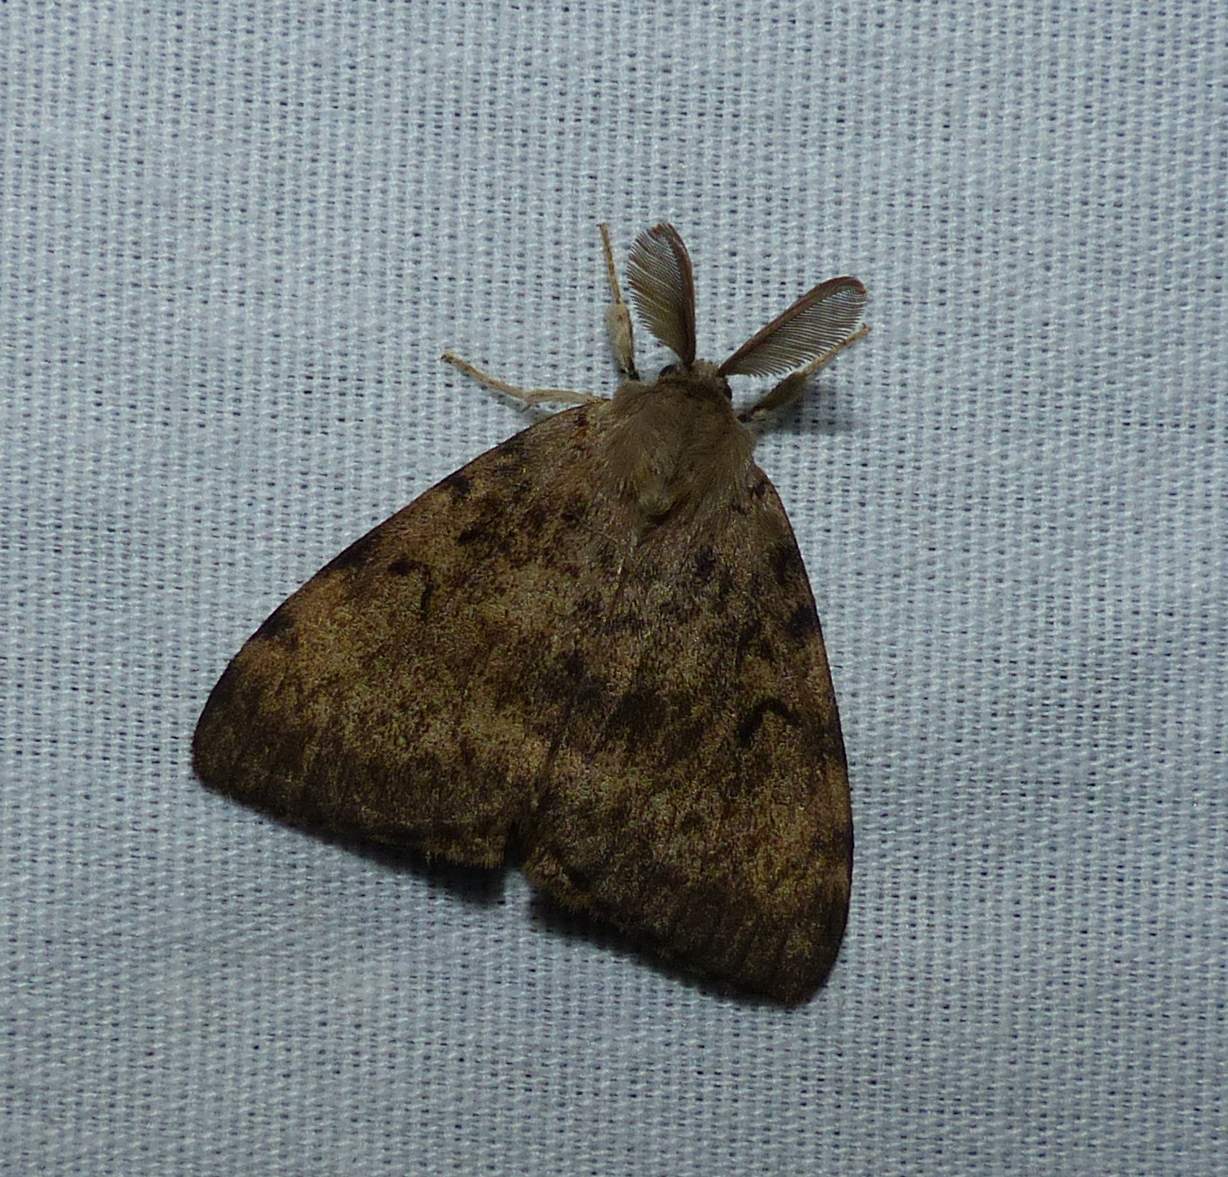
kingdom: Animalia
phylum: Arthropoda
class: Insecta
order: Lepidoptera
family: Erebidae
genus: Lymantria
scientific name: Lymantria dispar
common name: Gypsy moth
